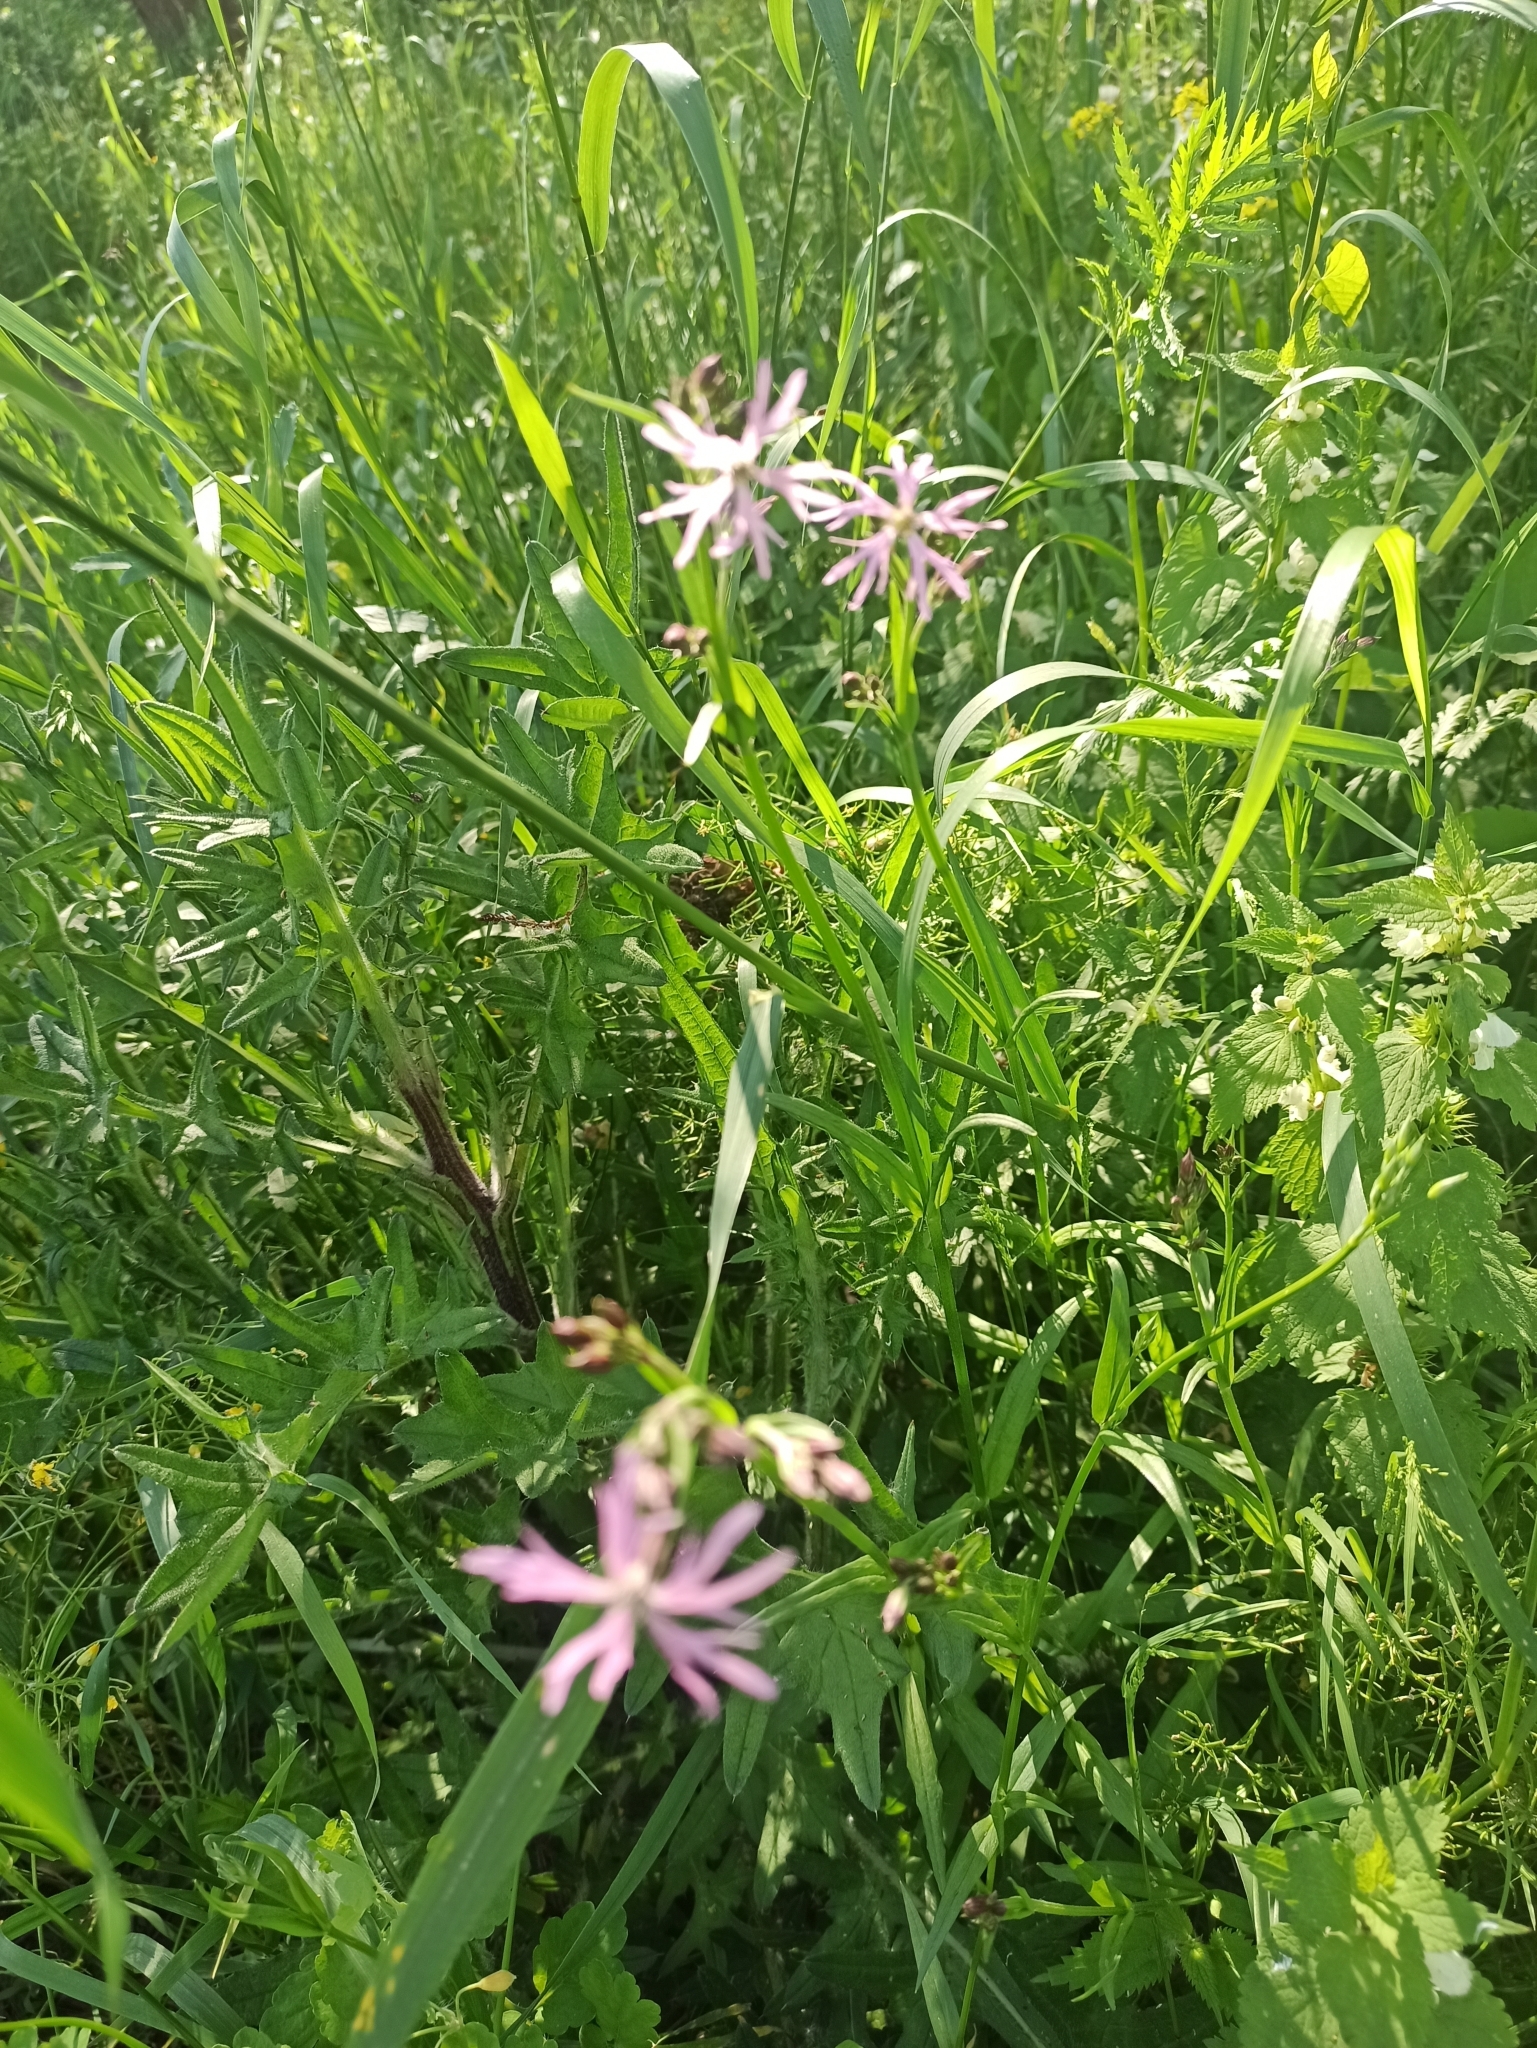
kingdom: Plantae
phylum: Tracheophyta
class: Magnoliopsida
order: Caryophyllales
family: Caryophyllaceae
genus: Silene
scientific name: Silene flos-cuculi
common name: Ragged-robin
